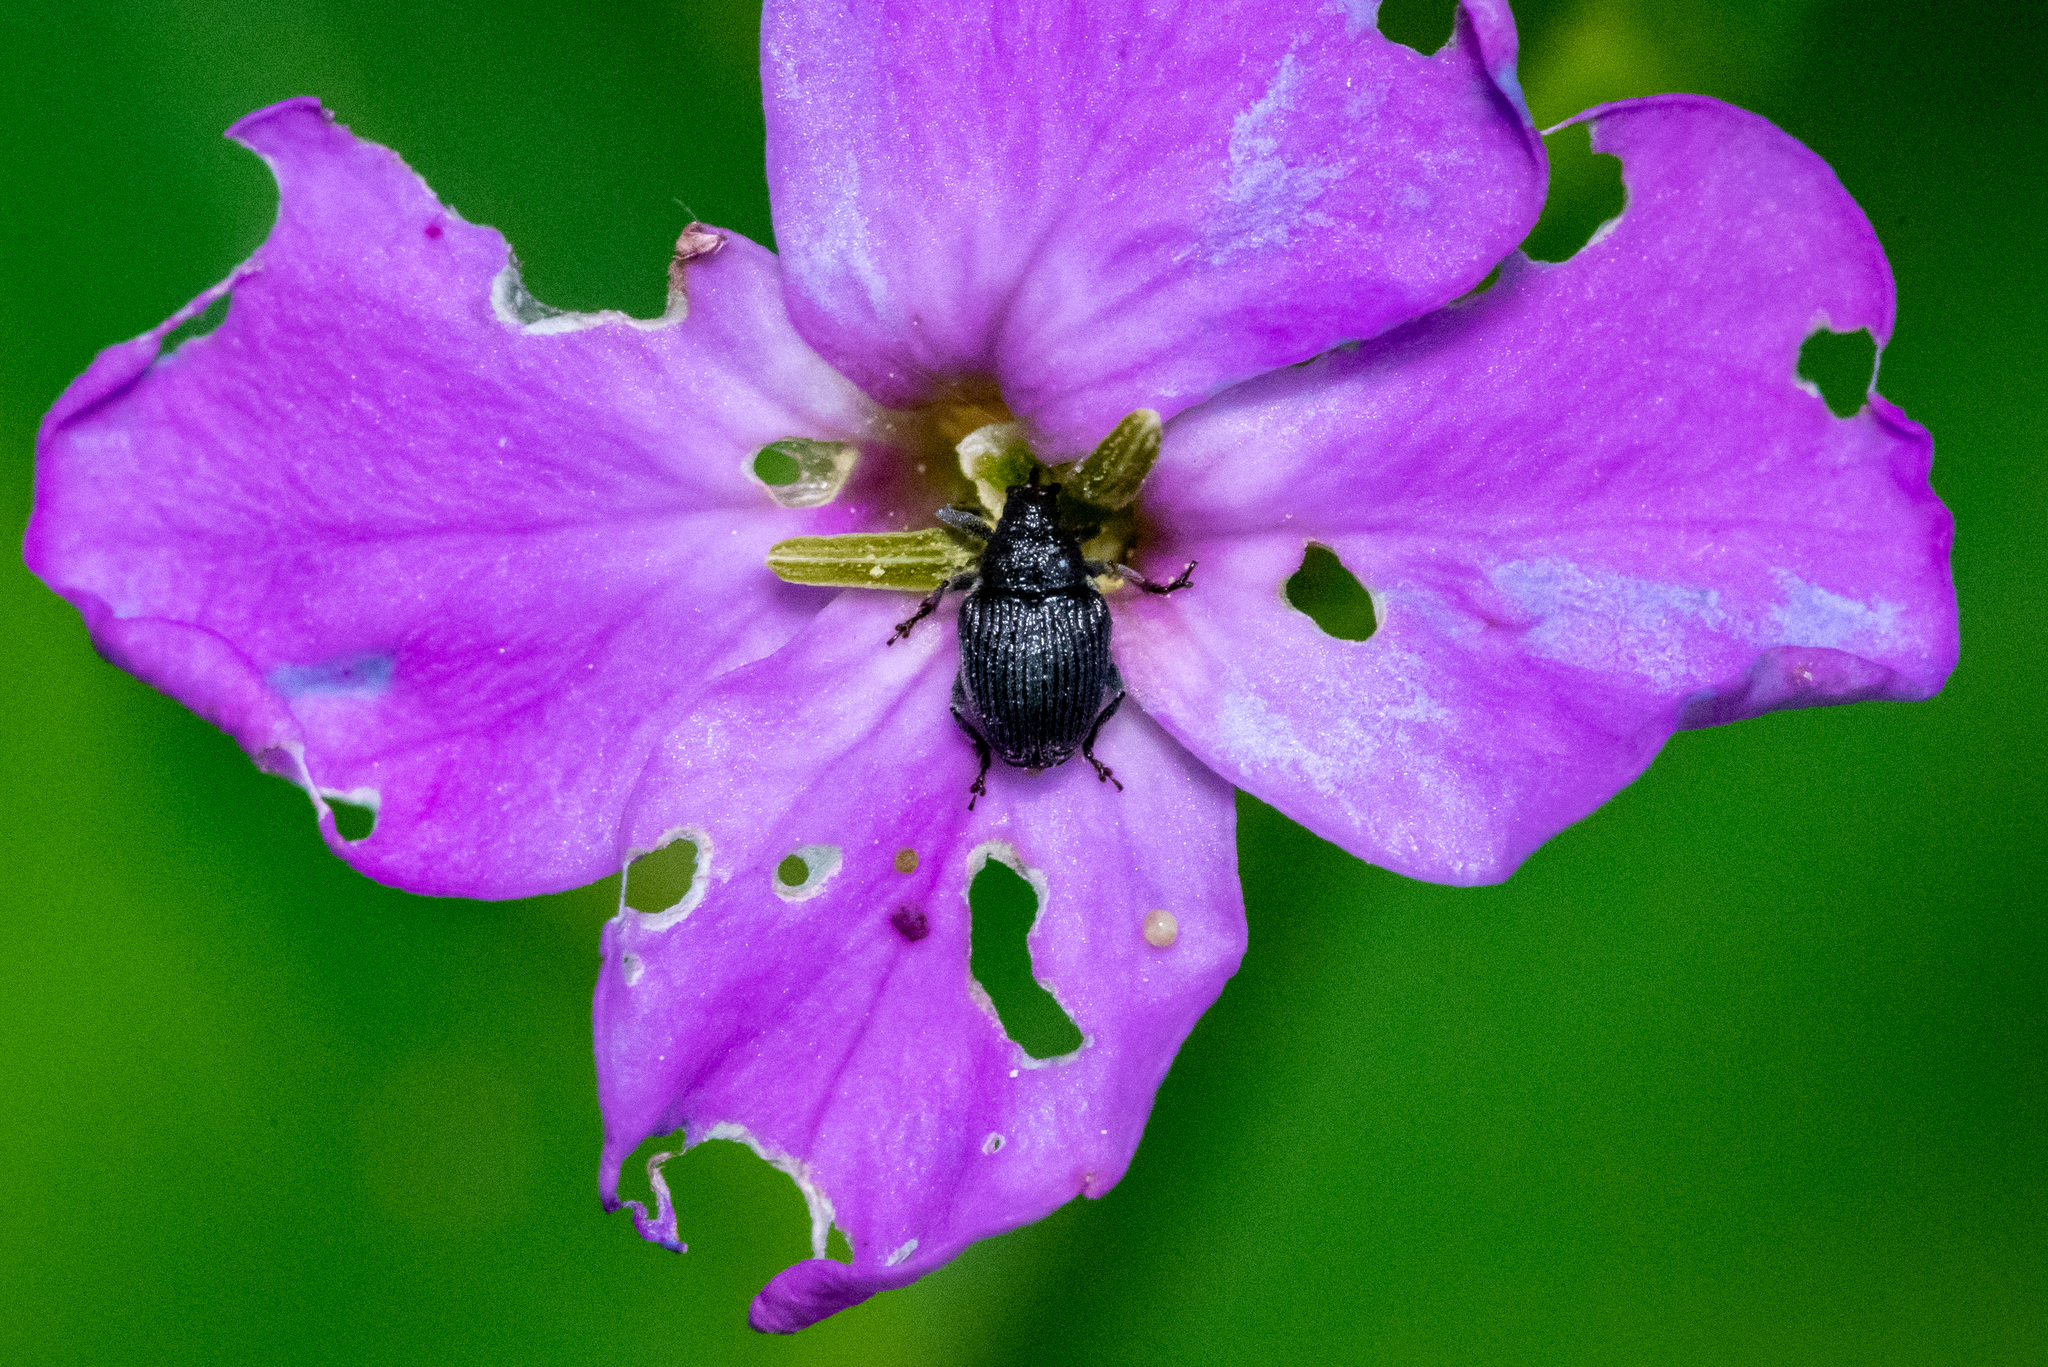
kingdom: Animalia
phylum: Arthropoda
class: Insecta
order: Coleoptera
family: Curculionidae
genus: Ceutorhynchus
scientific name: Ceutorhynchus inaffectatus
